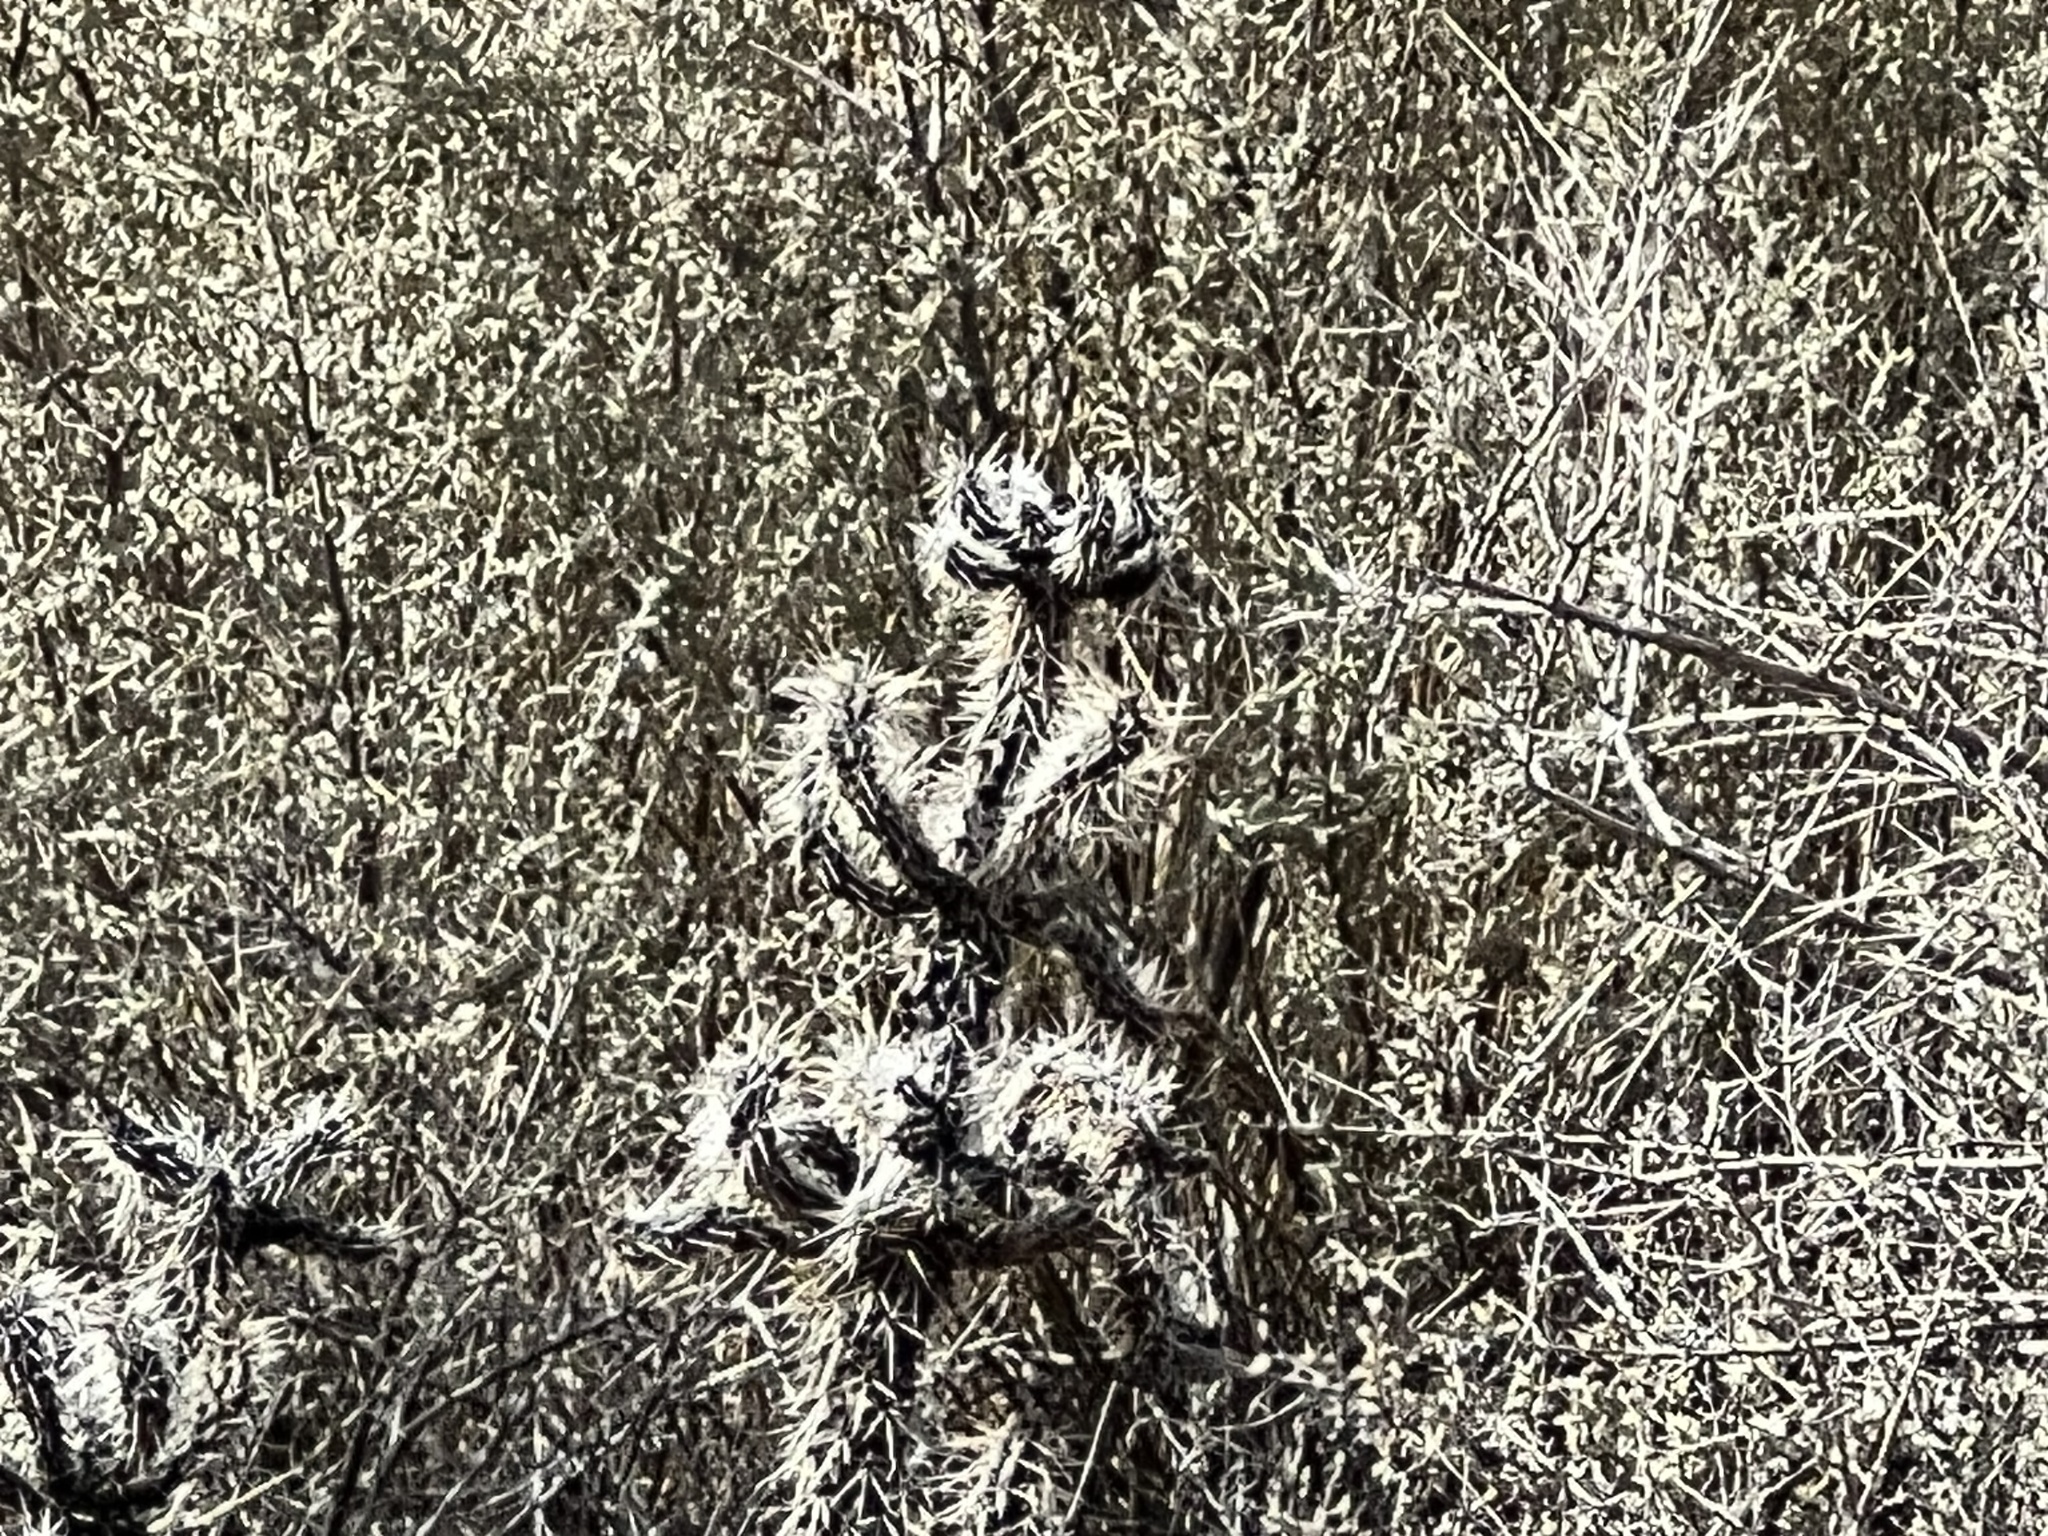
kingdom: Plantae
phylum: Tracheophyta
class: Magnoliopsida
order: Caryophyllales
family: Cactaceae
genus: Cylindropuntia
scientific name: Cylindropuntia whipplei
